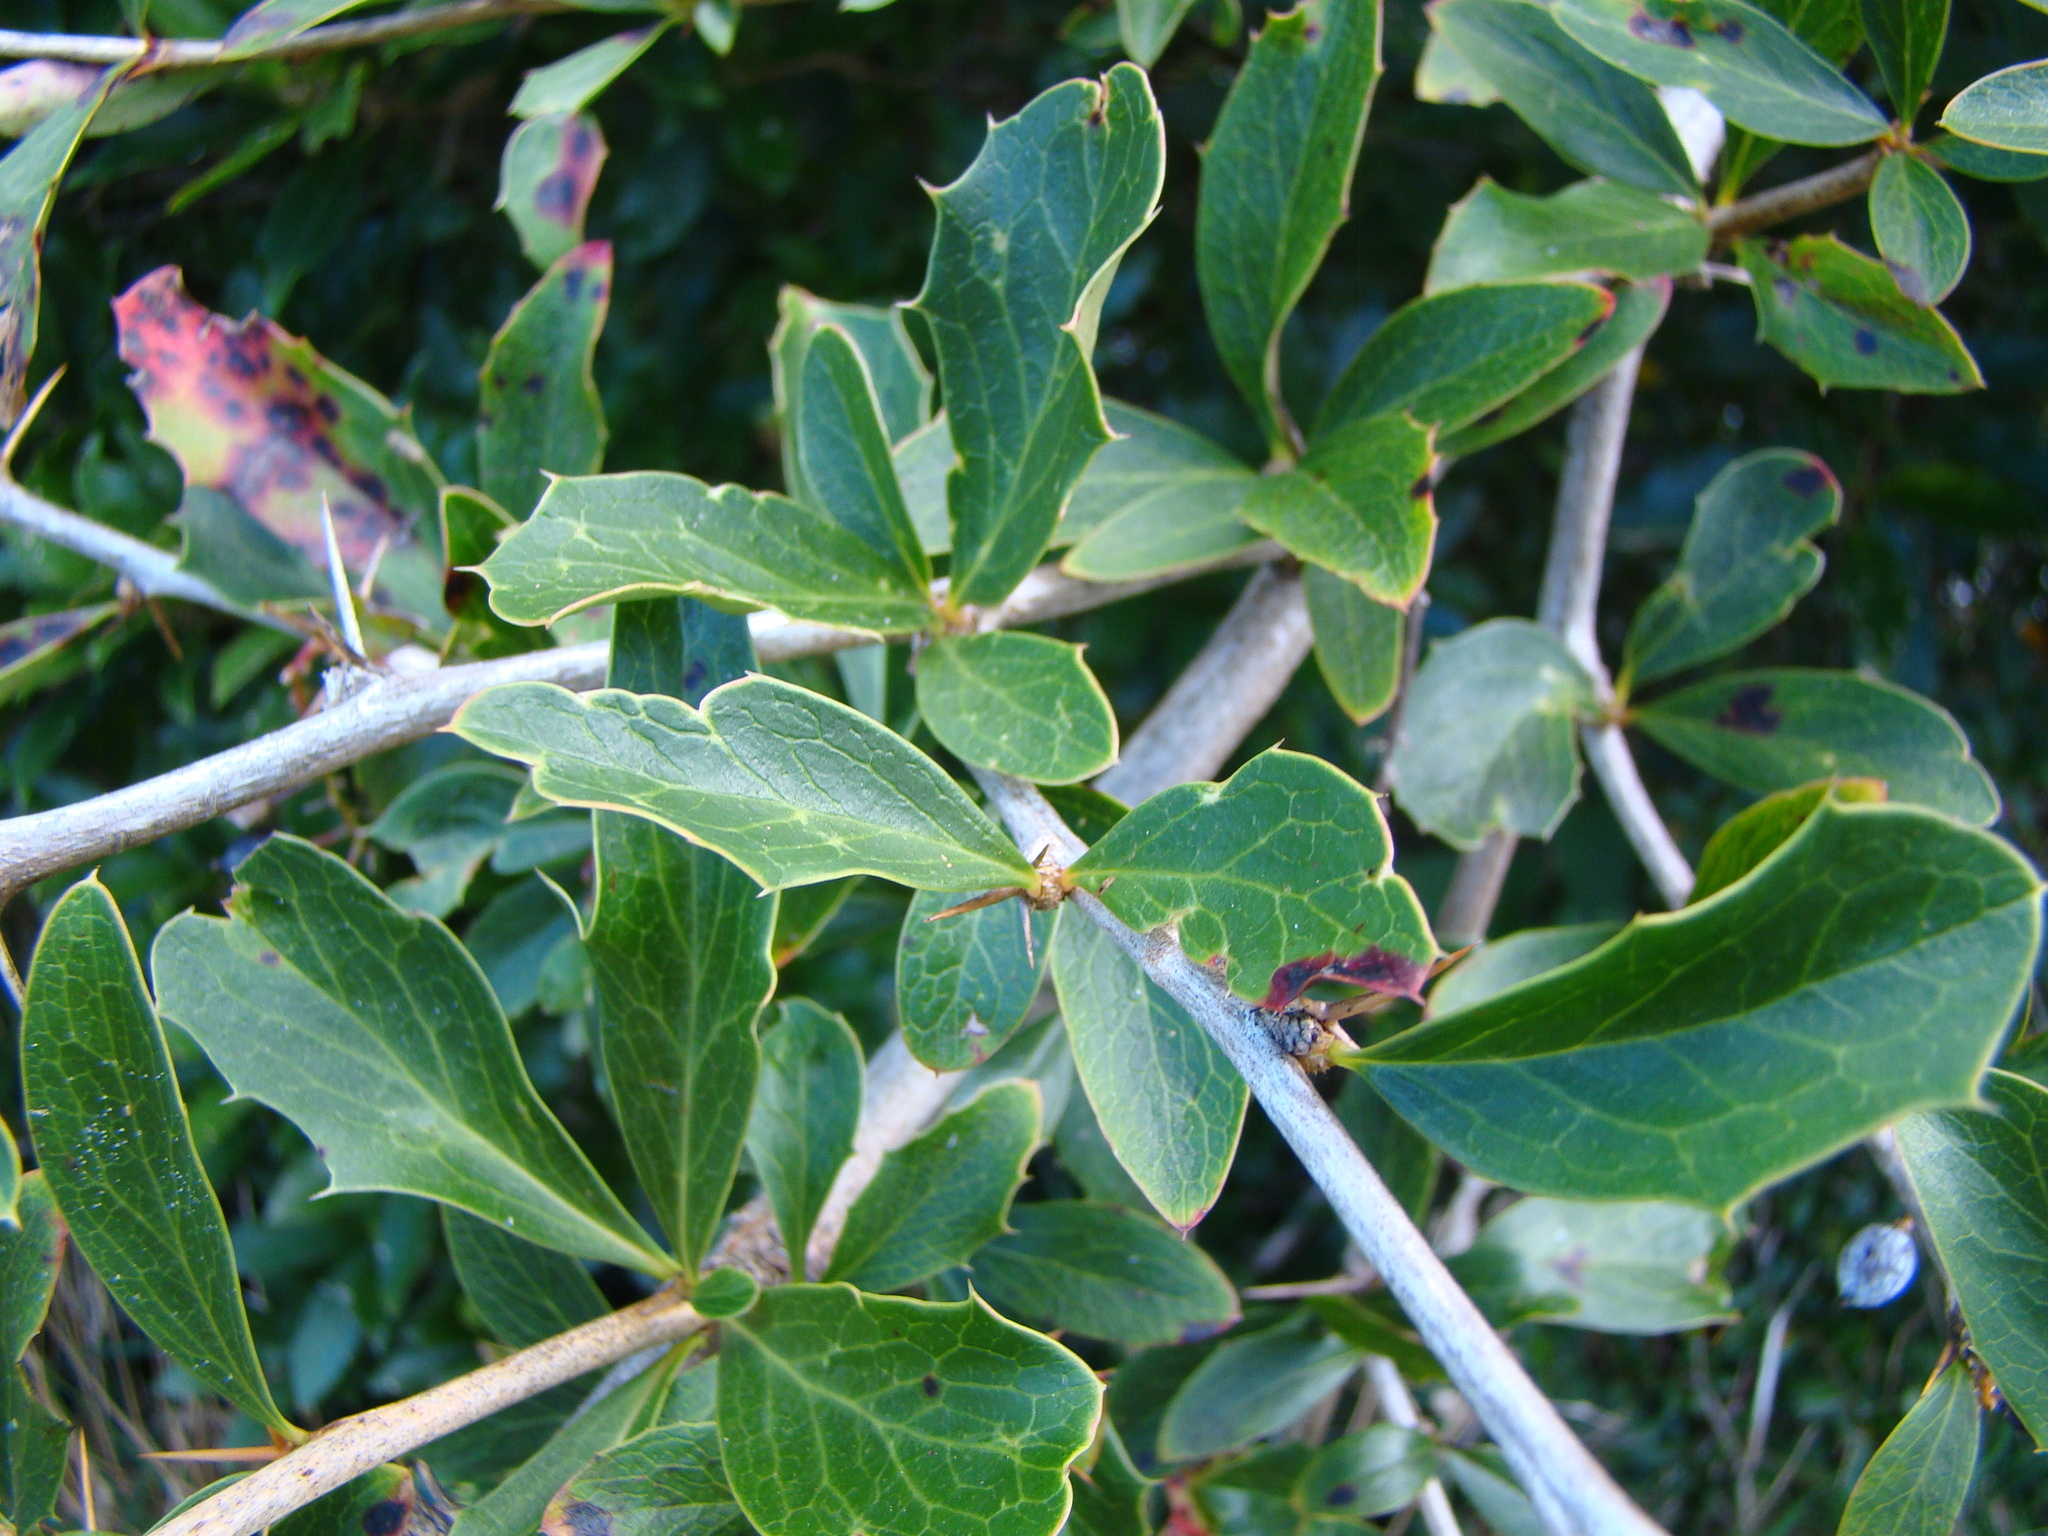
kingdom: Plantae
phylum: Tracheophyta
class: Magnoliopsida
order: Ranunculales
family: Berberidaceae
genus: Berberis
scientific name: Berberis glaucocarpa
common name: Great barberry
